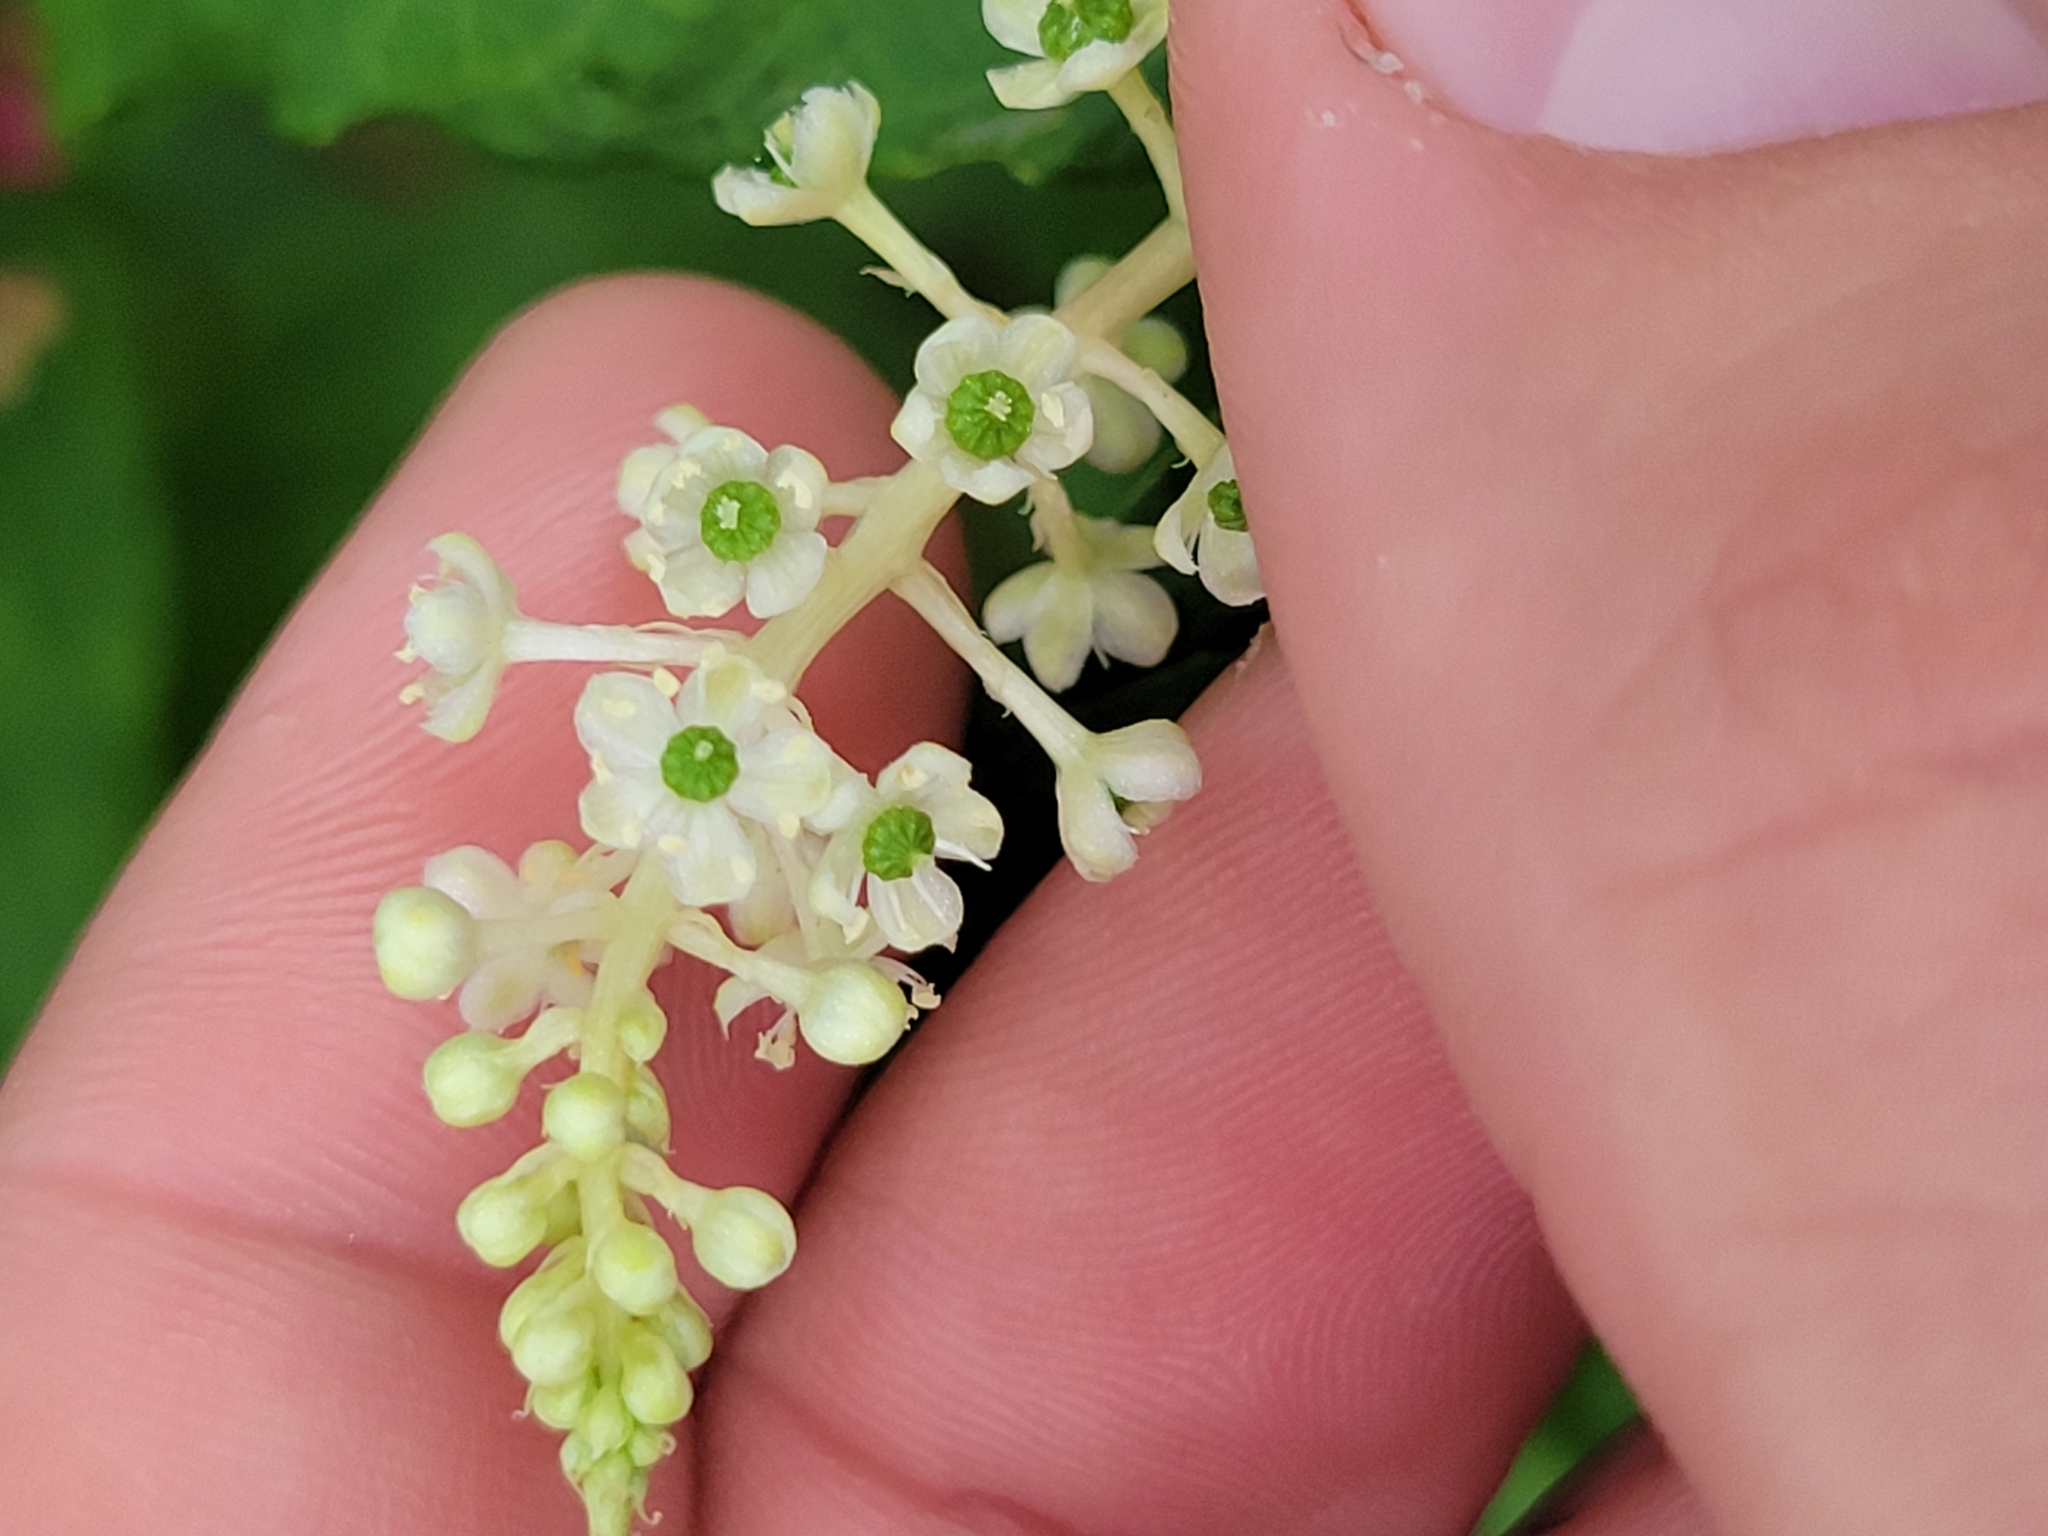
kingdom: Plantae
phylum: Tracheophyta
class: Magnoliopsida
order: Caryophyllales
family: Phytolaccaceae
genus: Phytolacca
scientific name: Phytolacca americana
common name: American pokeweed
